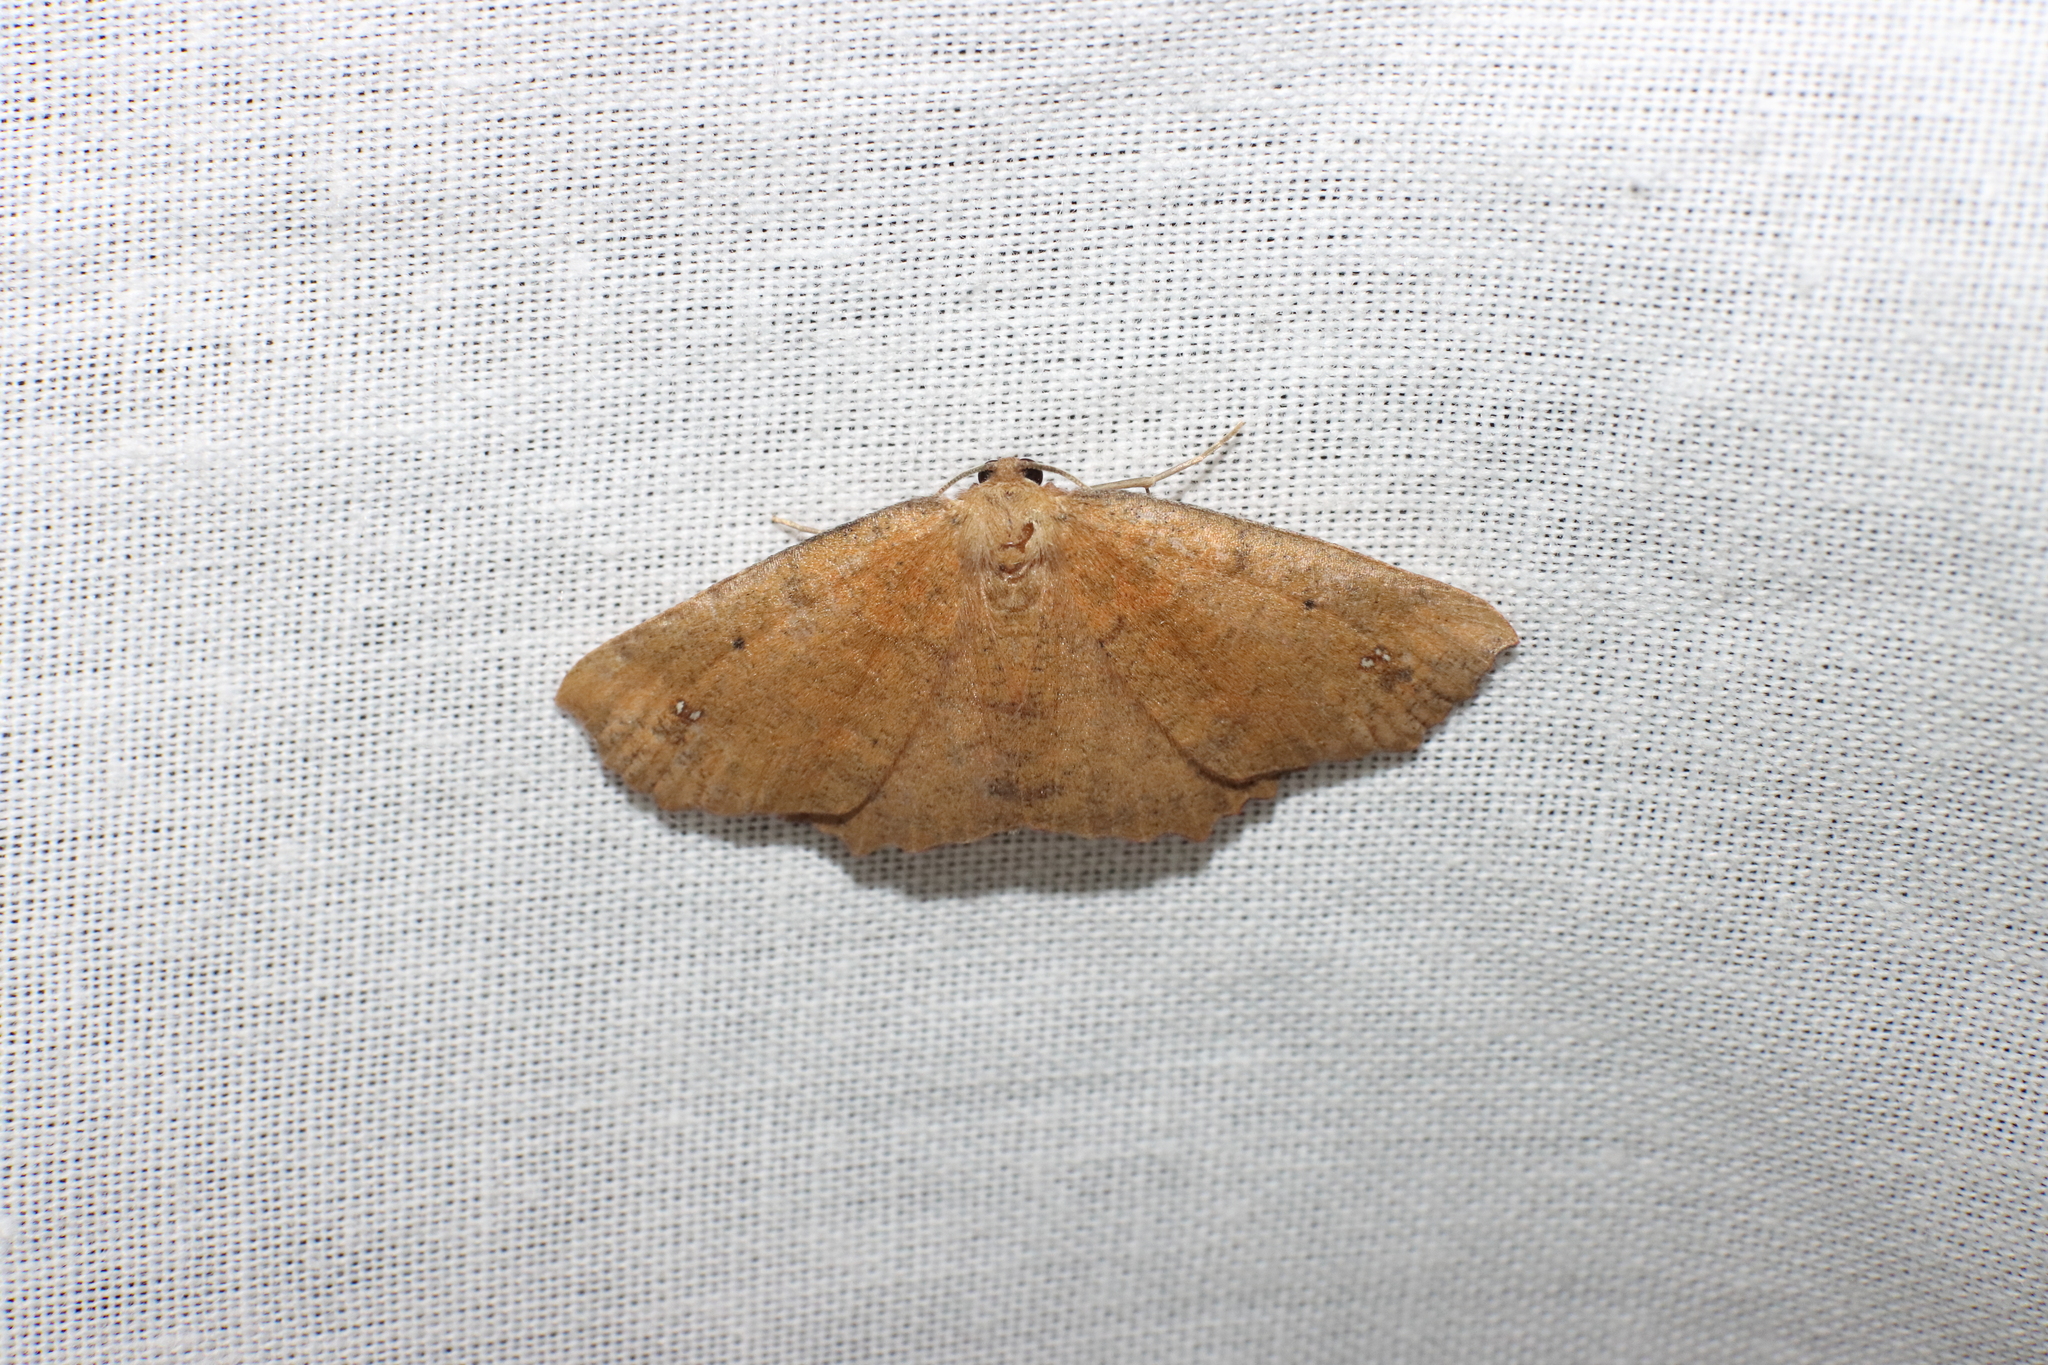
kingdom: Animalia
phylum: Arthropoda
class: Insecta
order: Lepidoptera
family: Geometridae
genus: Xyridacma
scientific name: Xyridacma ustaria
